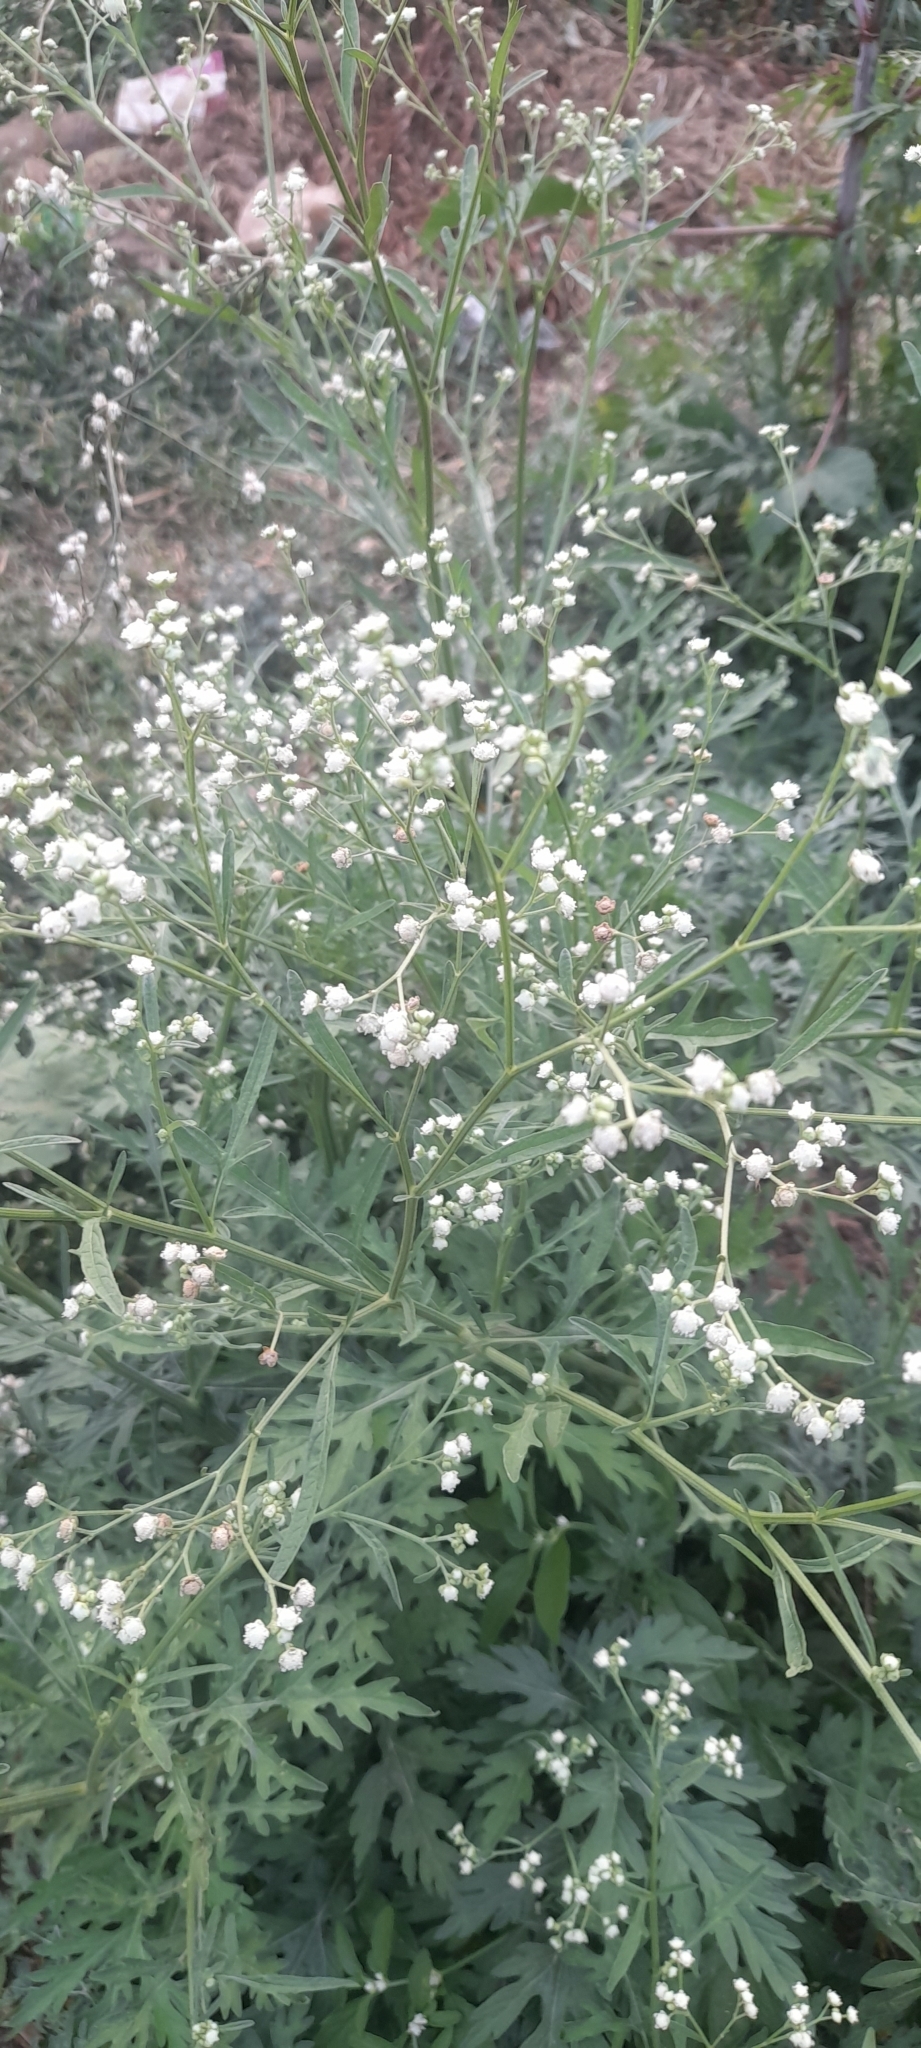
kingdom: Plantae
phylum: Tracheophyta
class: Magnoliopsida
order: Asterales
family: Asteraceae
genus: Parthenium
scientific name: Parthenium hysterophorus
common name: Santa maria feverfew
